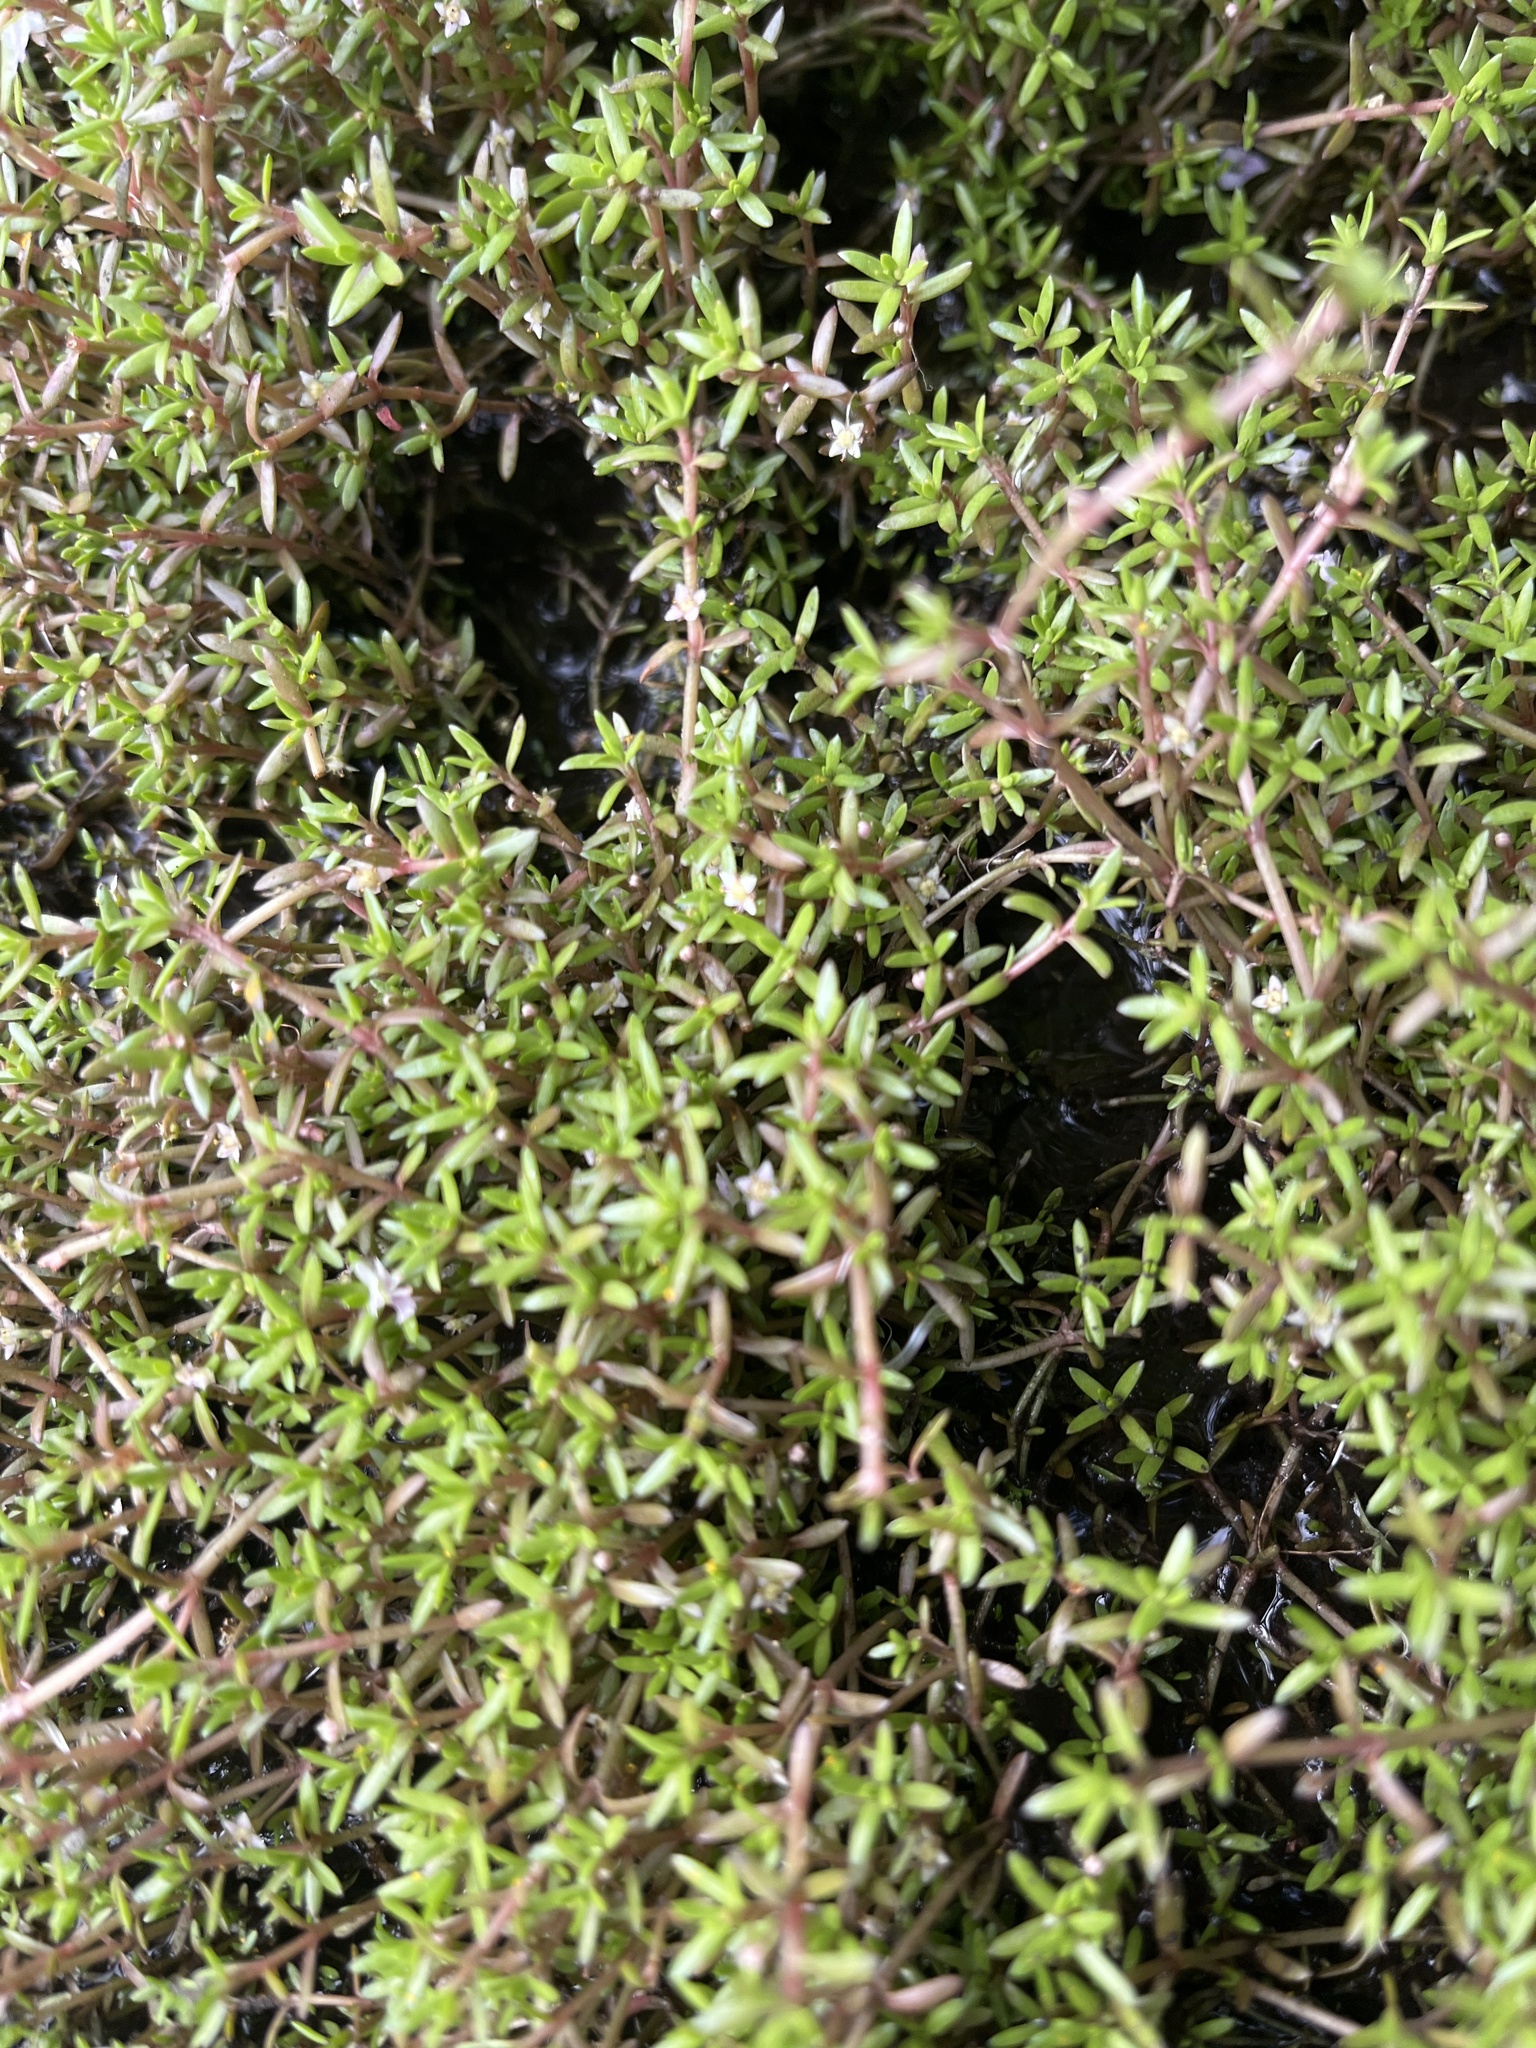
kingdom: Plantae
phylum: Tracheophyta
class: Magnoliopsida
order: Saxifragales
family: Crassulaceae
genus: Crassula
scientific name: Crassula helmsii
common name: New zealand pigmyweed
